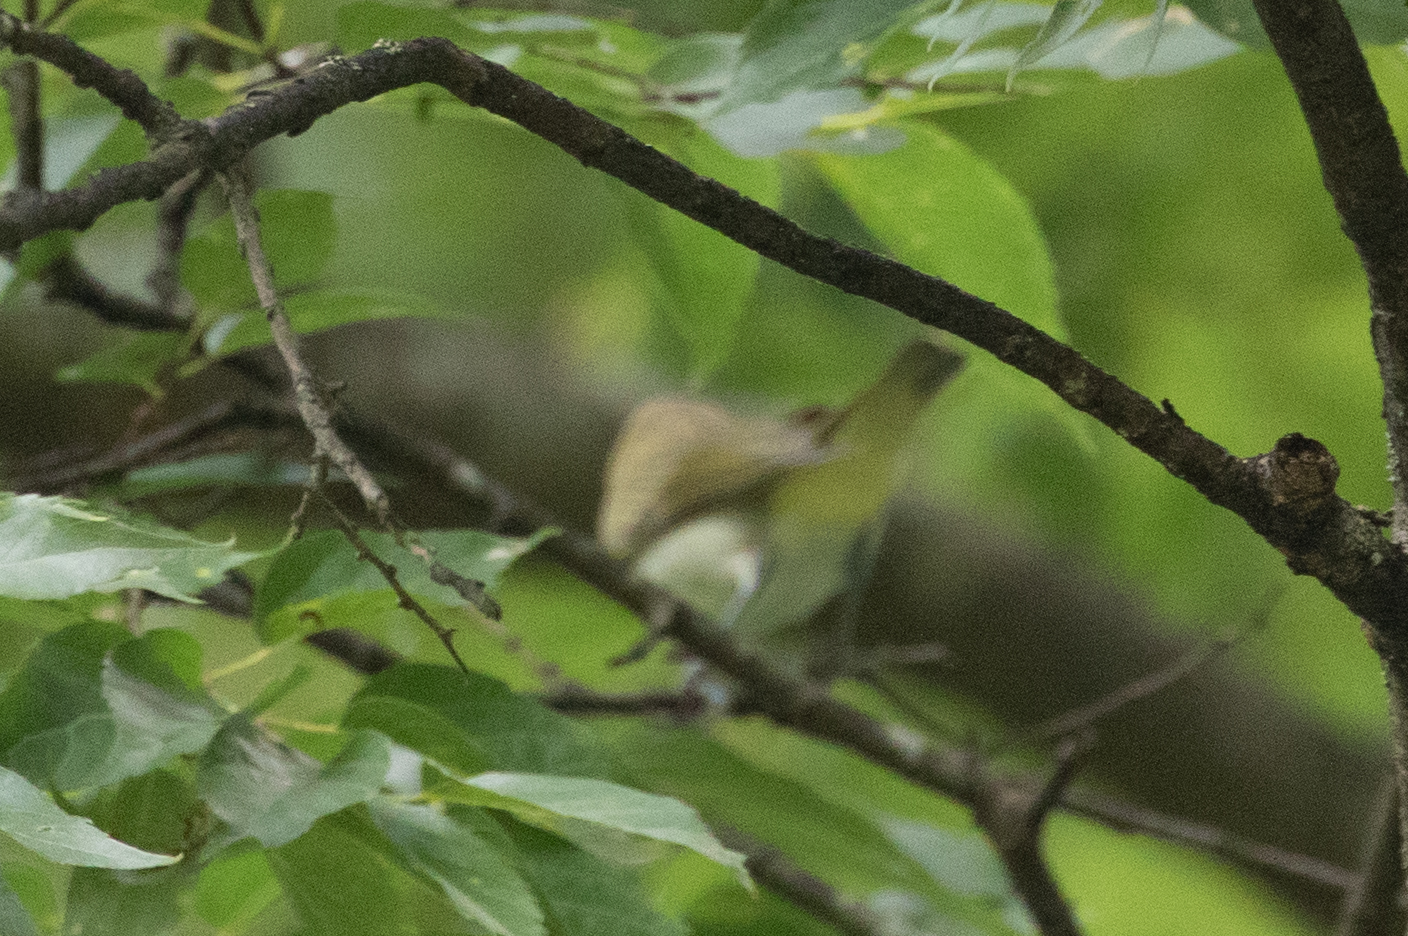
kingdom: Animalia
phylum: Chordata
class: Aves
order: Passeriformes
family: Vireonidae
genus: Vireo
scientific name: Vireo olivaceus
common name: Red-eyed vireo
